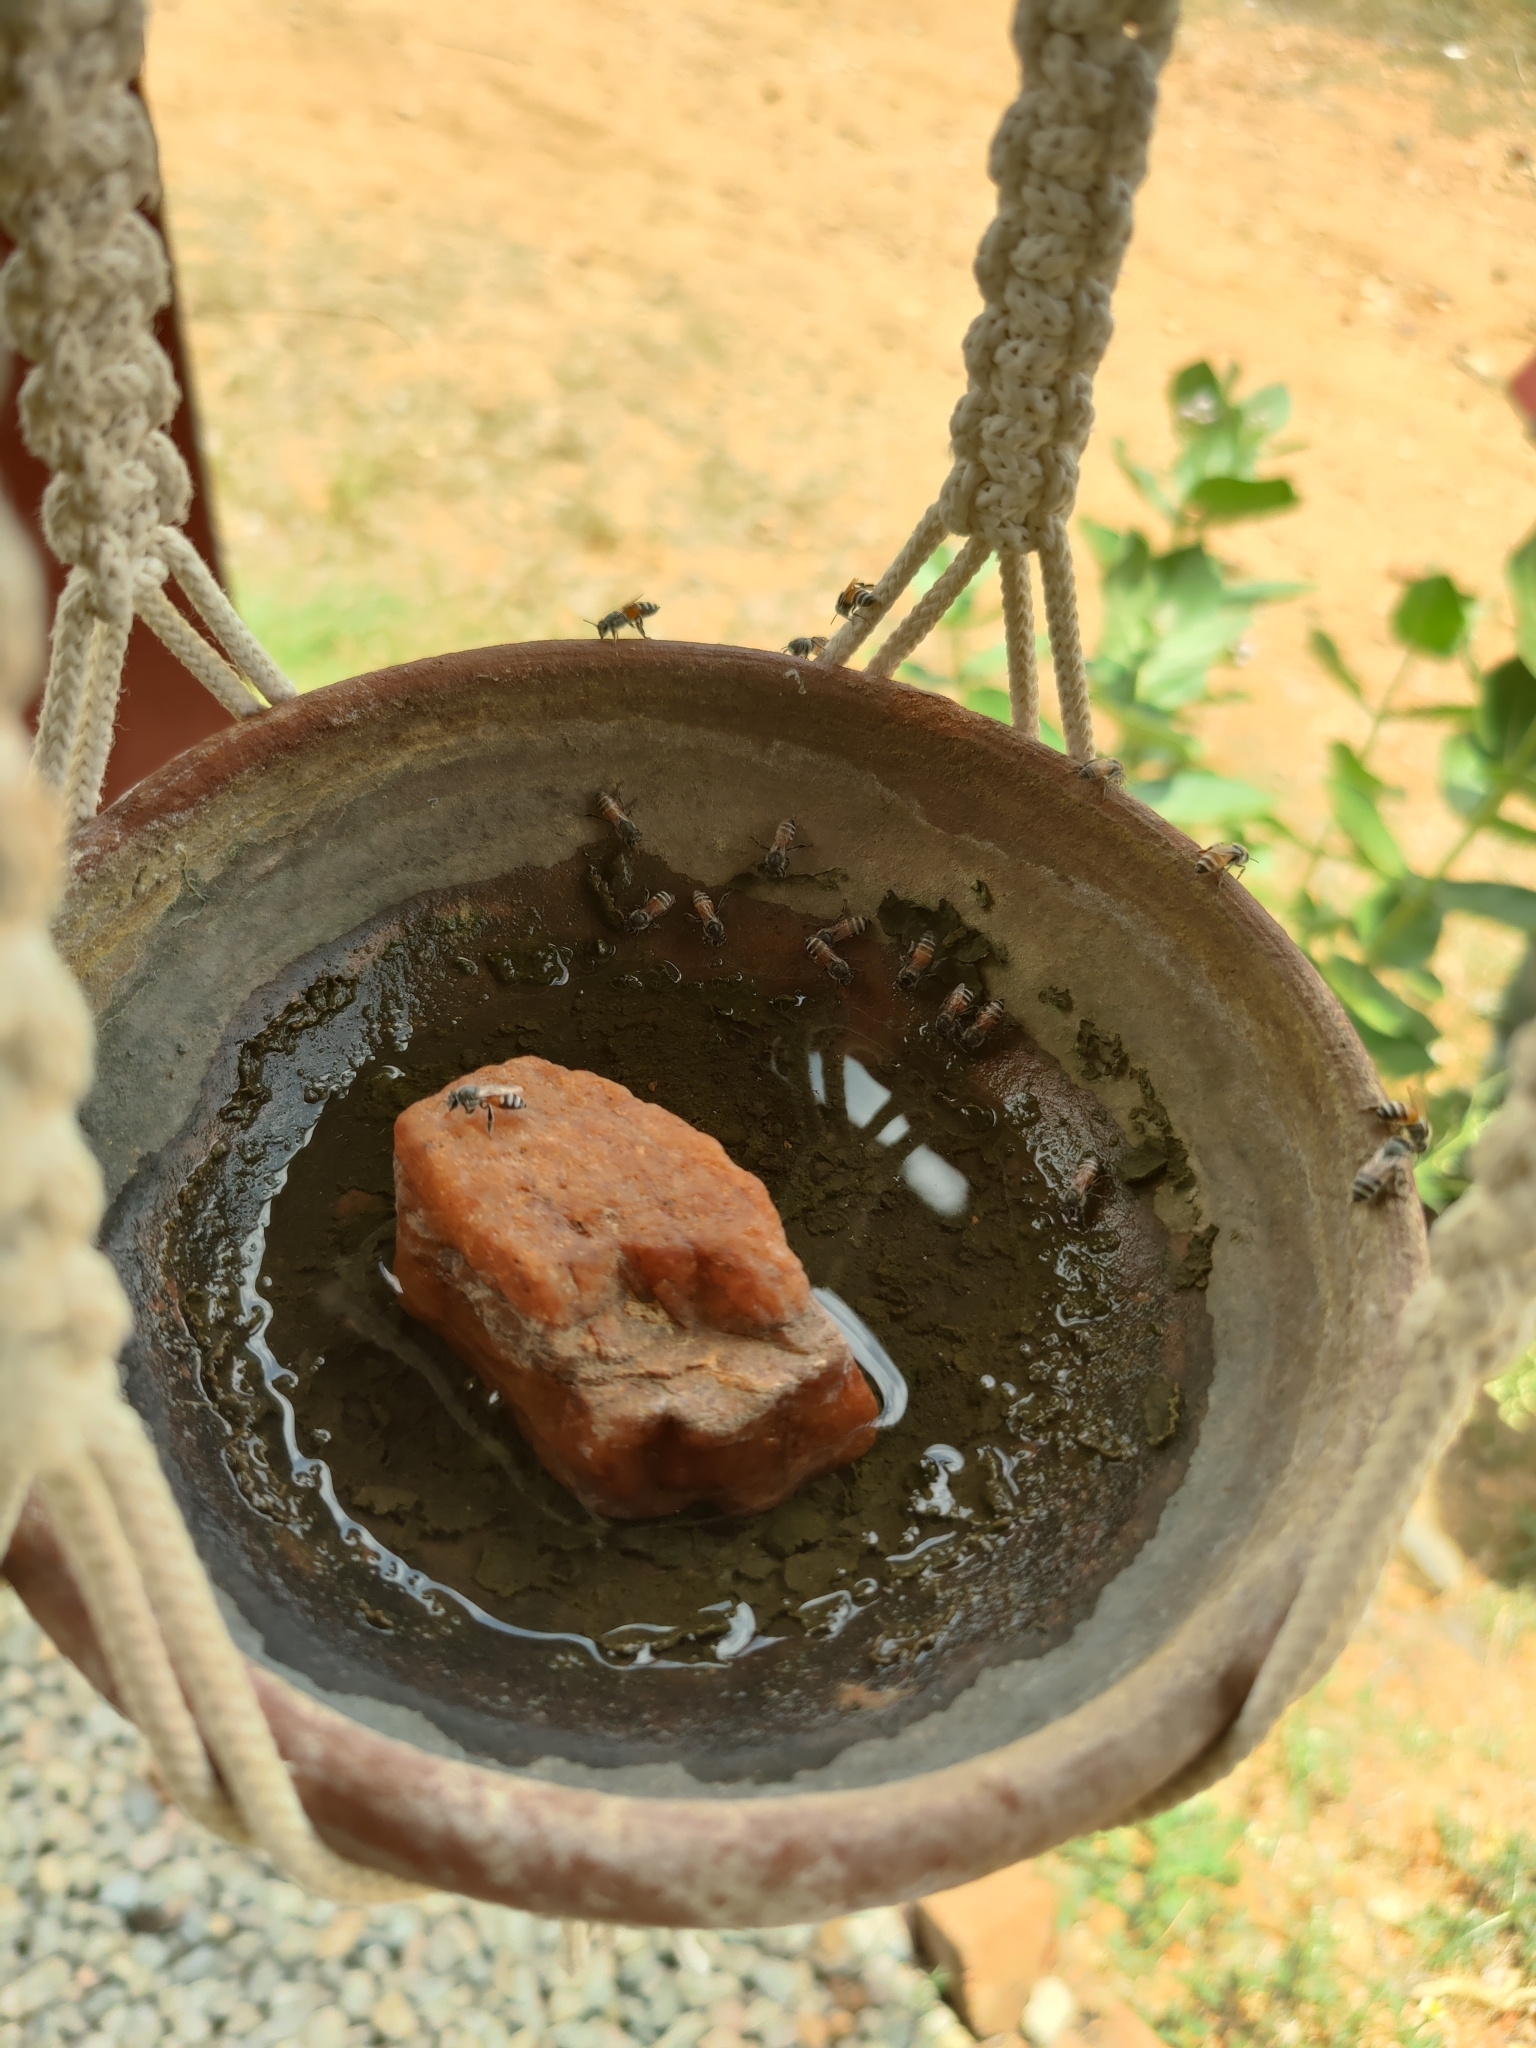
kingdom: Animalia
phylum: Arthropoda
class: Insecta
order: Hymenoptera
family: Apidae
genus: Apis
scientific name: Apis florea
